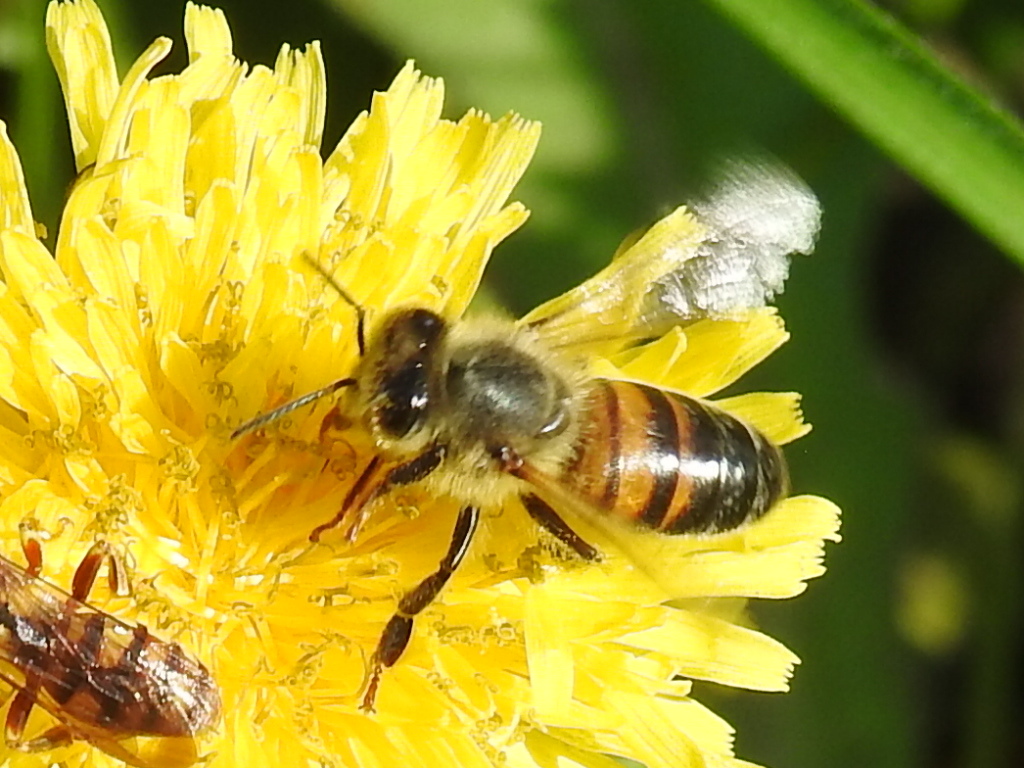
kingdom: Animalia
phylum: Arthropoda
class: Insecta
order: Hymenoptera
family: Apidae
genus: Apis
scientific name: Apis mellifera
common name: Honey bee
